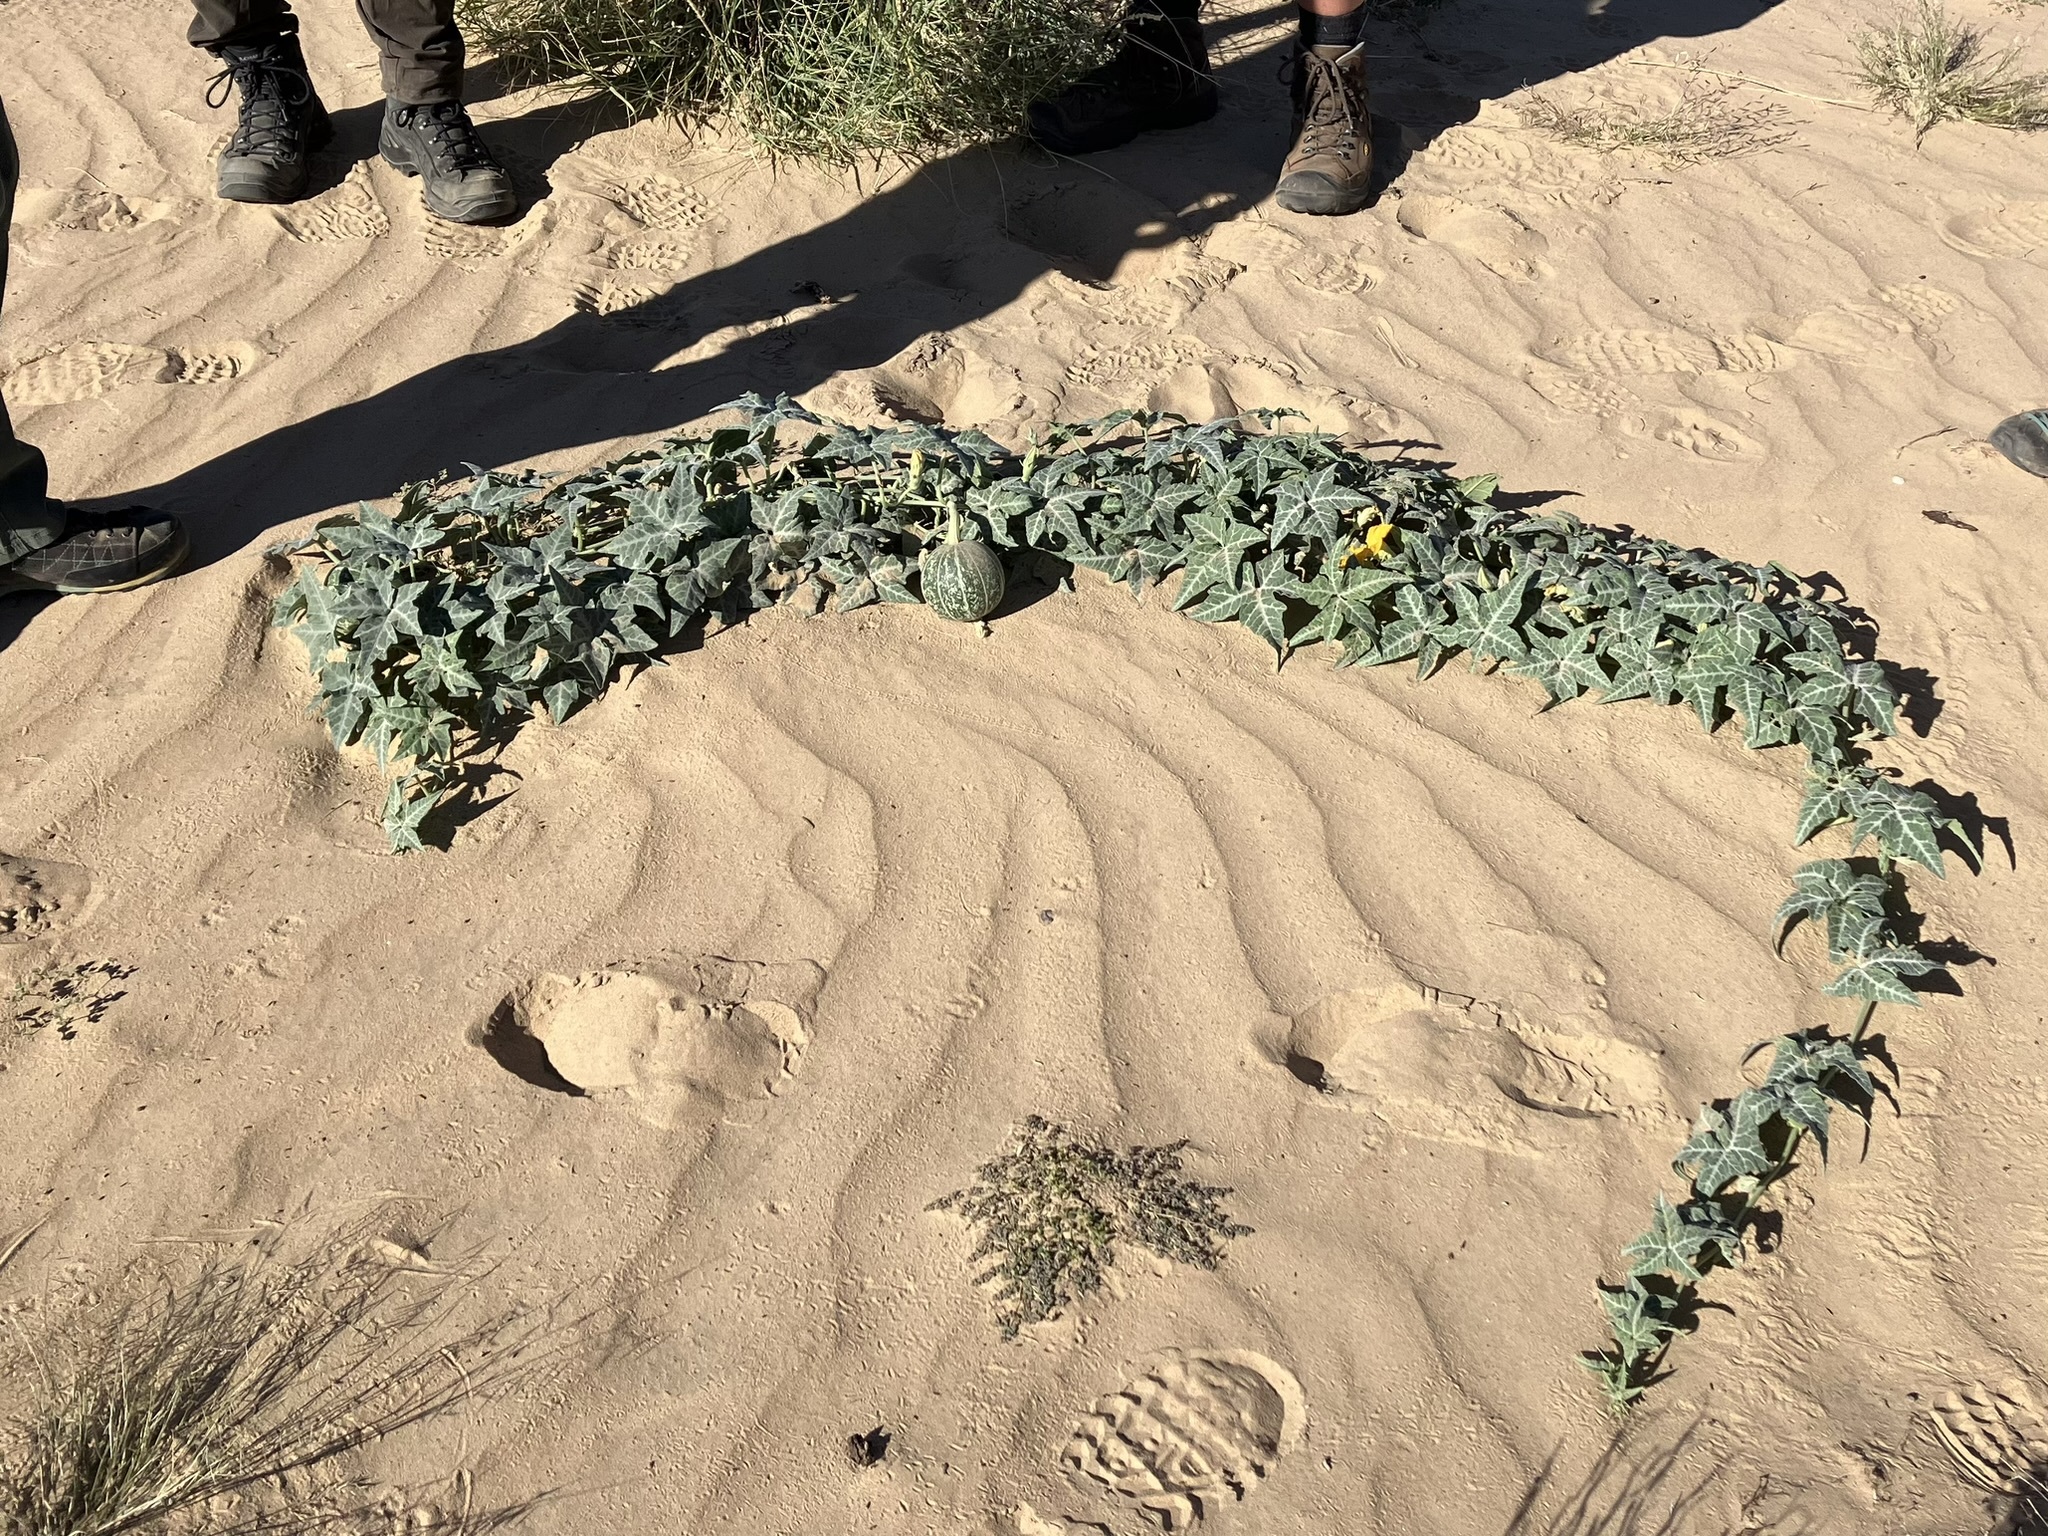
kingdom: Plantae
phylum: Tracheophyta
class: Magnoliopsida
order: Cucurbitales
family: Cucurbitaceae
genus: Cucurbita
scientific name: Cucurbita palmata
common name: Coyote-melon
